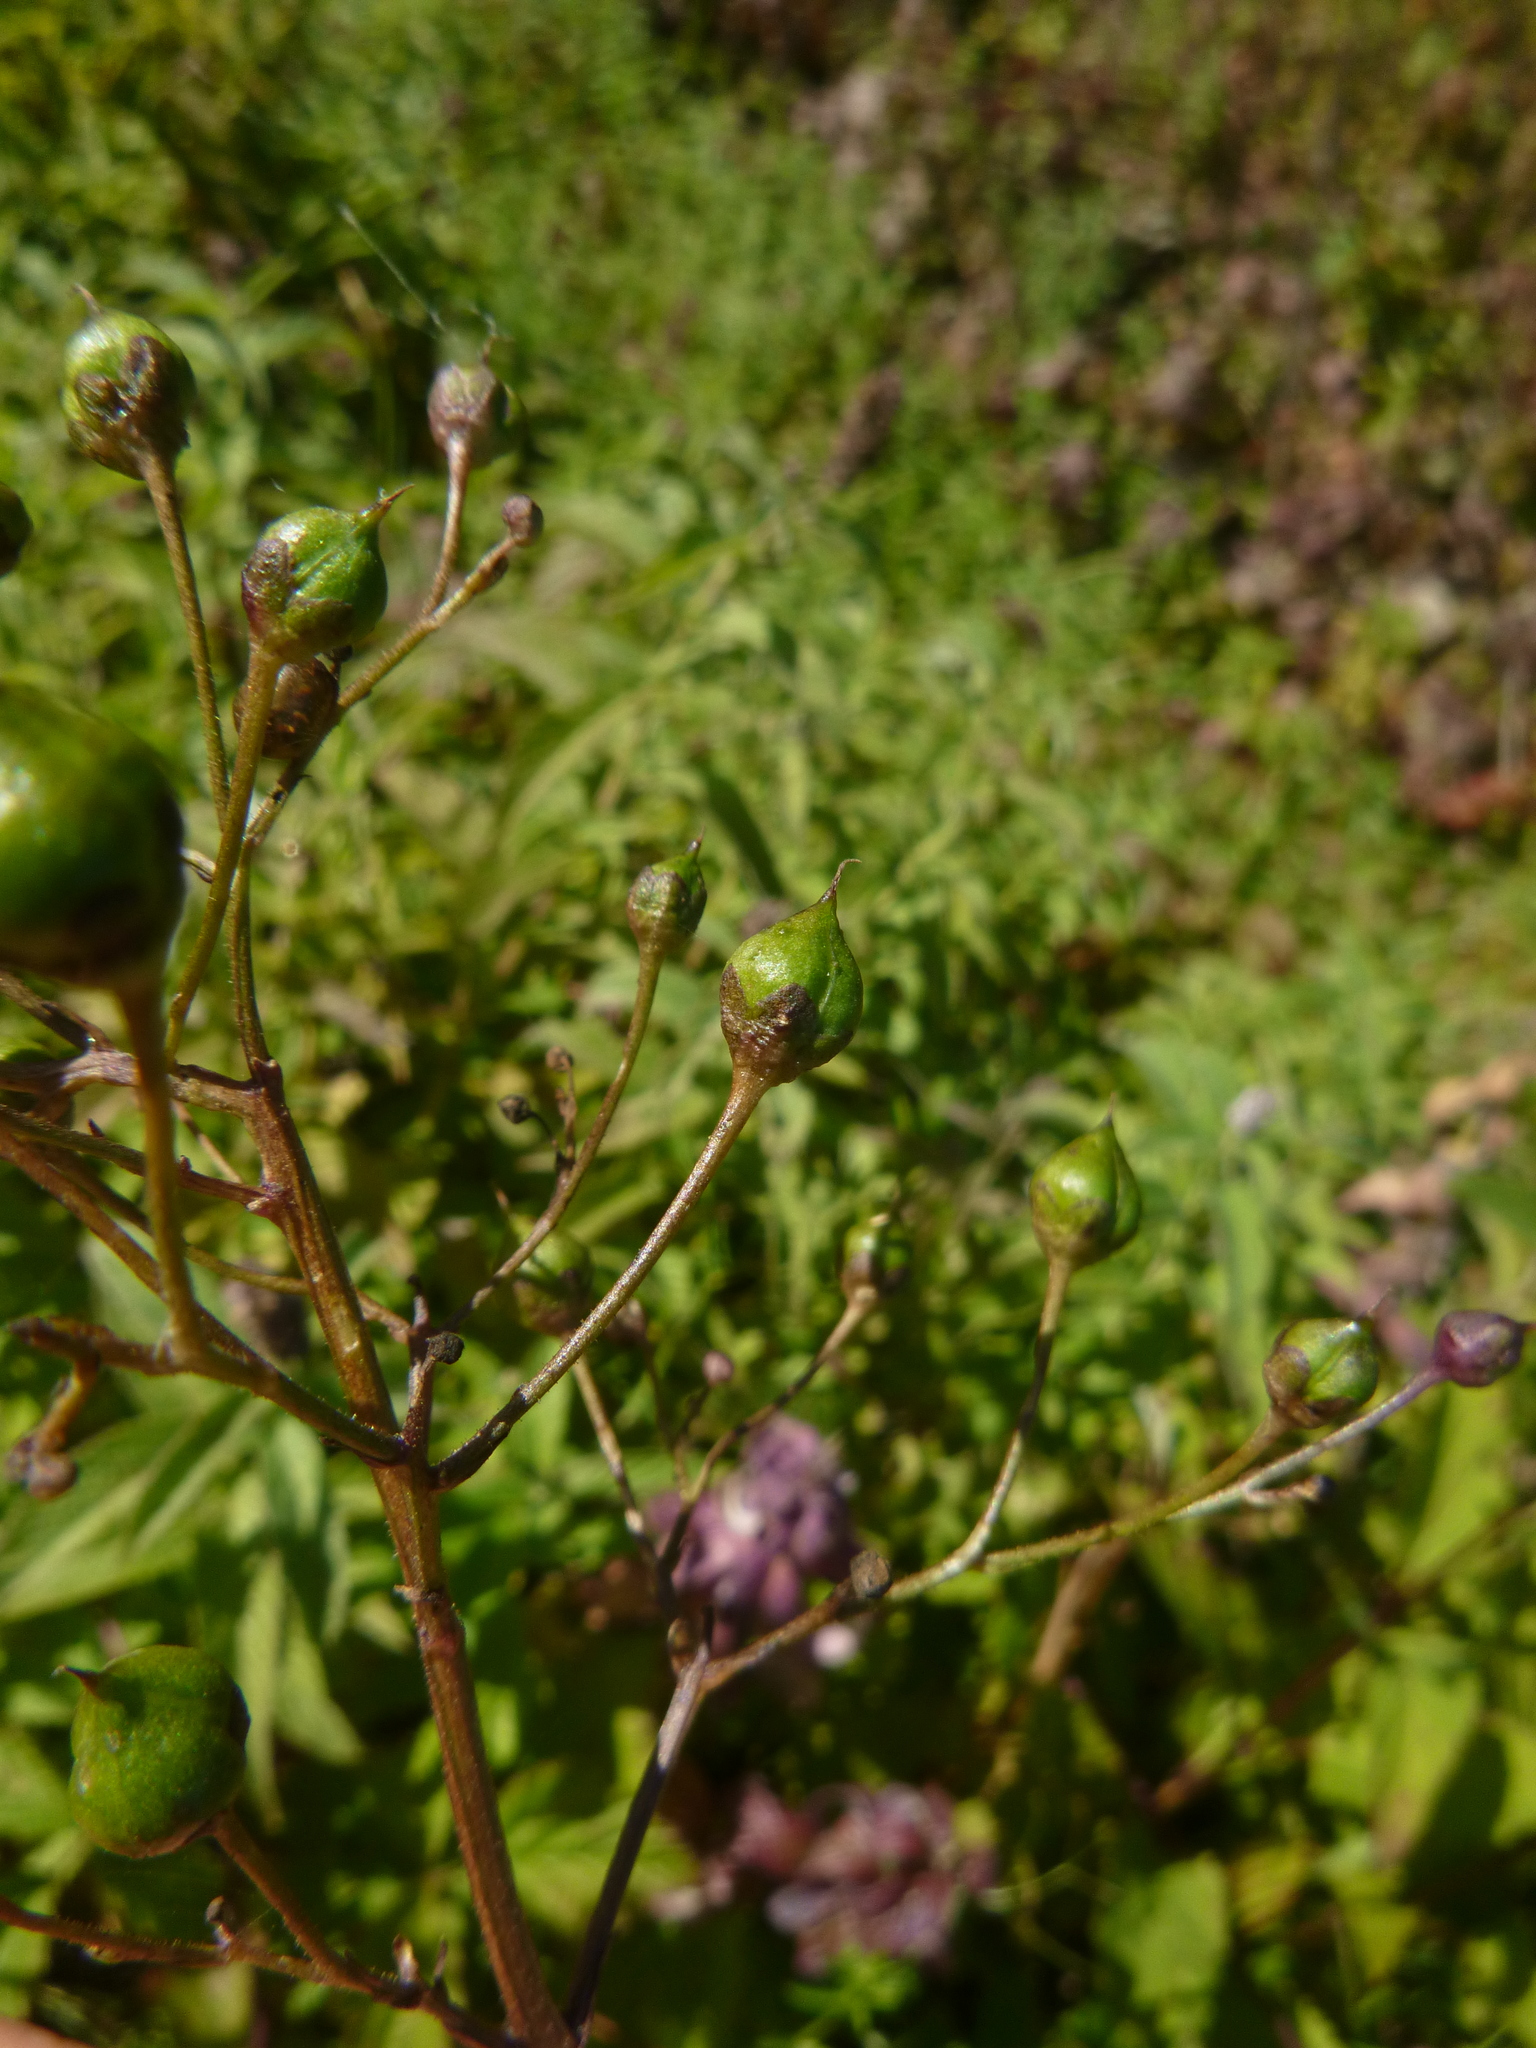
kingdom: Plantae
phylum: Tracheophyta
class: Magnoliopsida
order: Lamiales
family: Scrophulariaceae
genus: Scrophularia
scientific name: Scrophularia nodosa
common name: Common figwort
